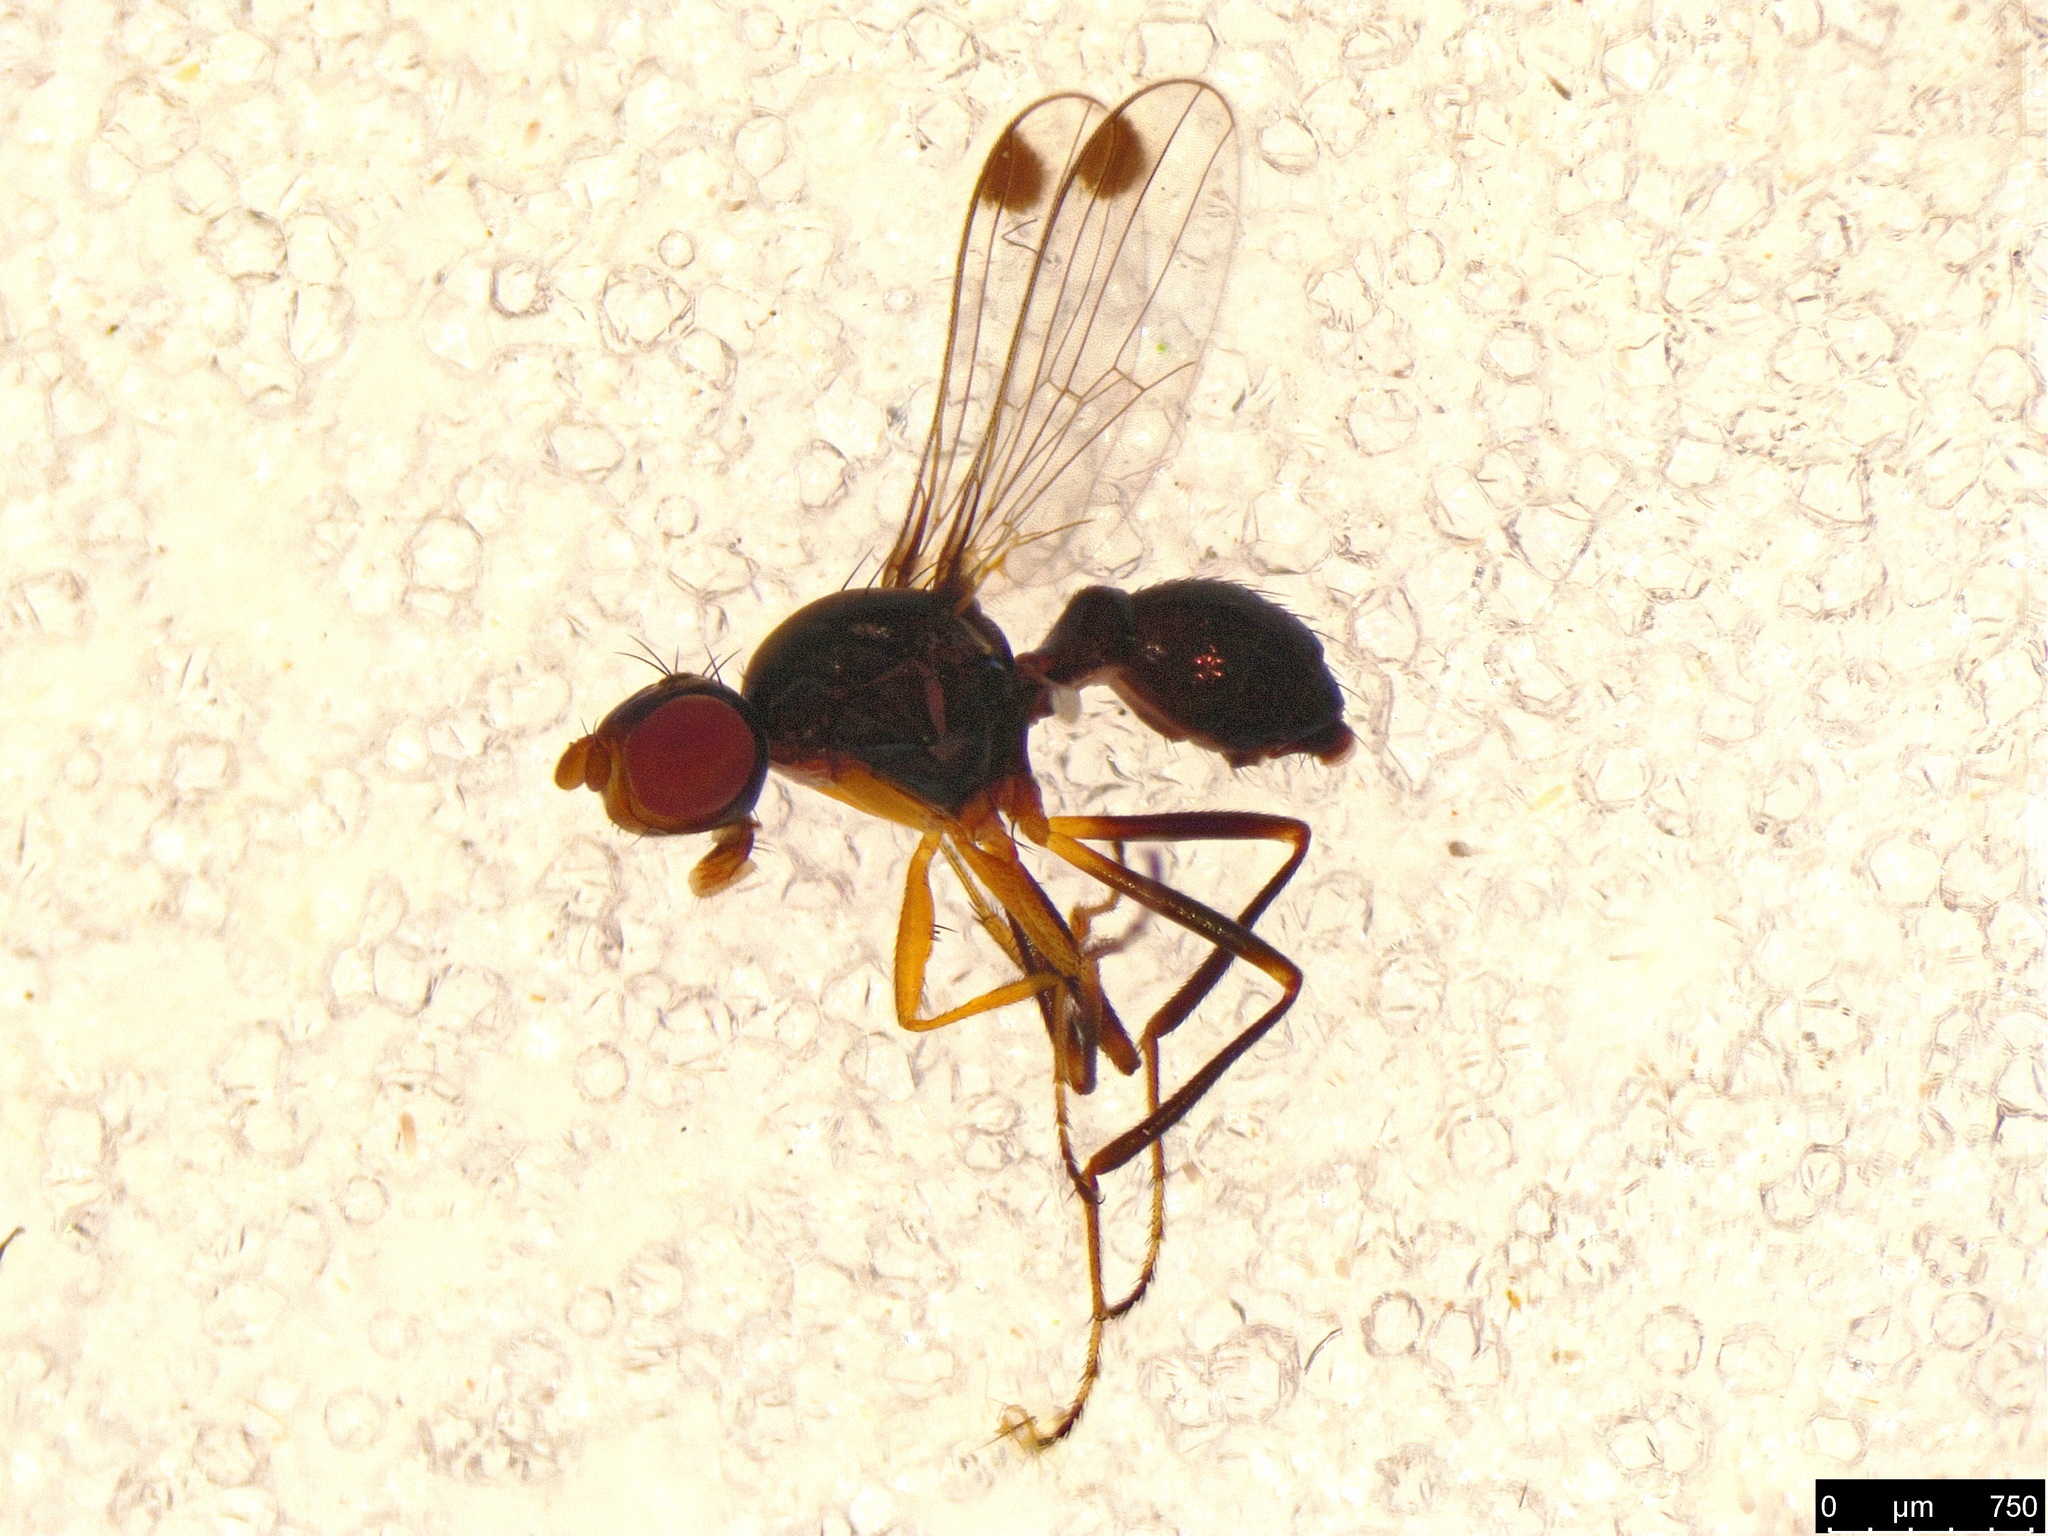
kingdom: Animalia
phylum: Arthropoda
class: Insecta
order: Diptera
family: Sepsidae
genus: Parapalaeosepsis
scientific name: Parapalaeosepsis plebeia
